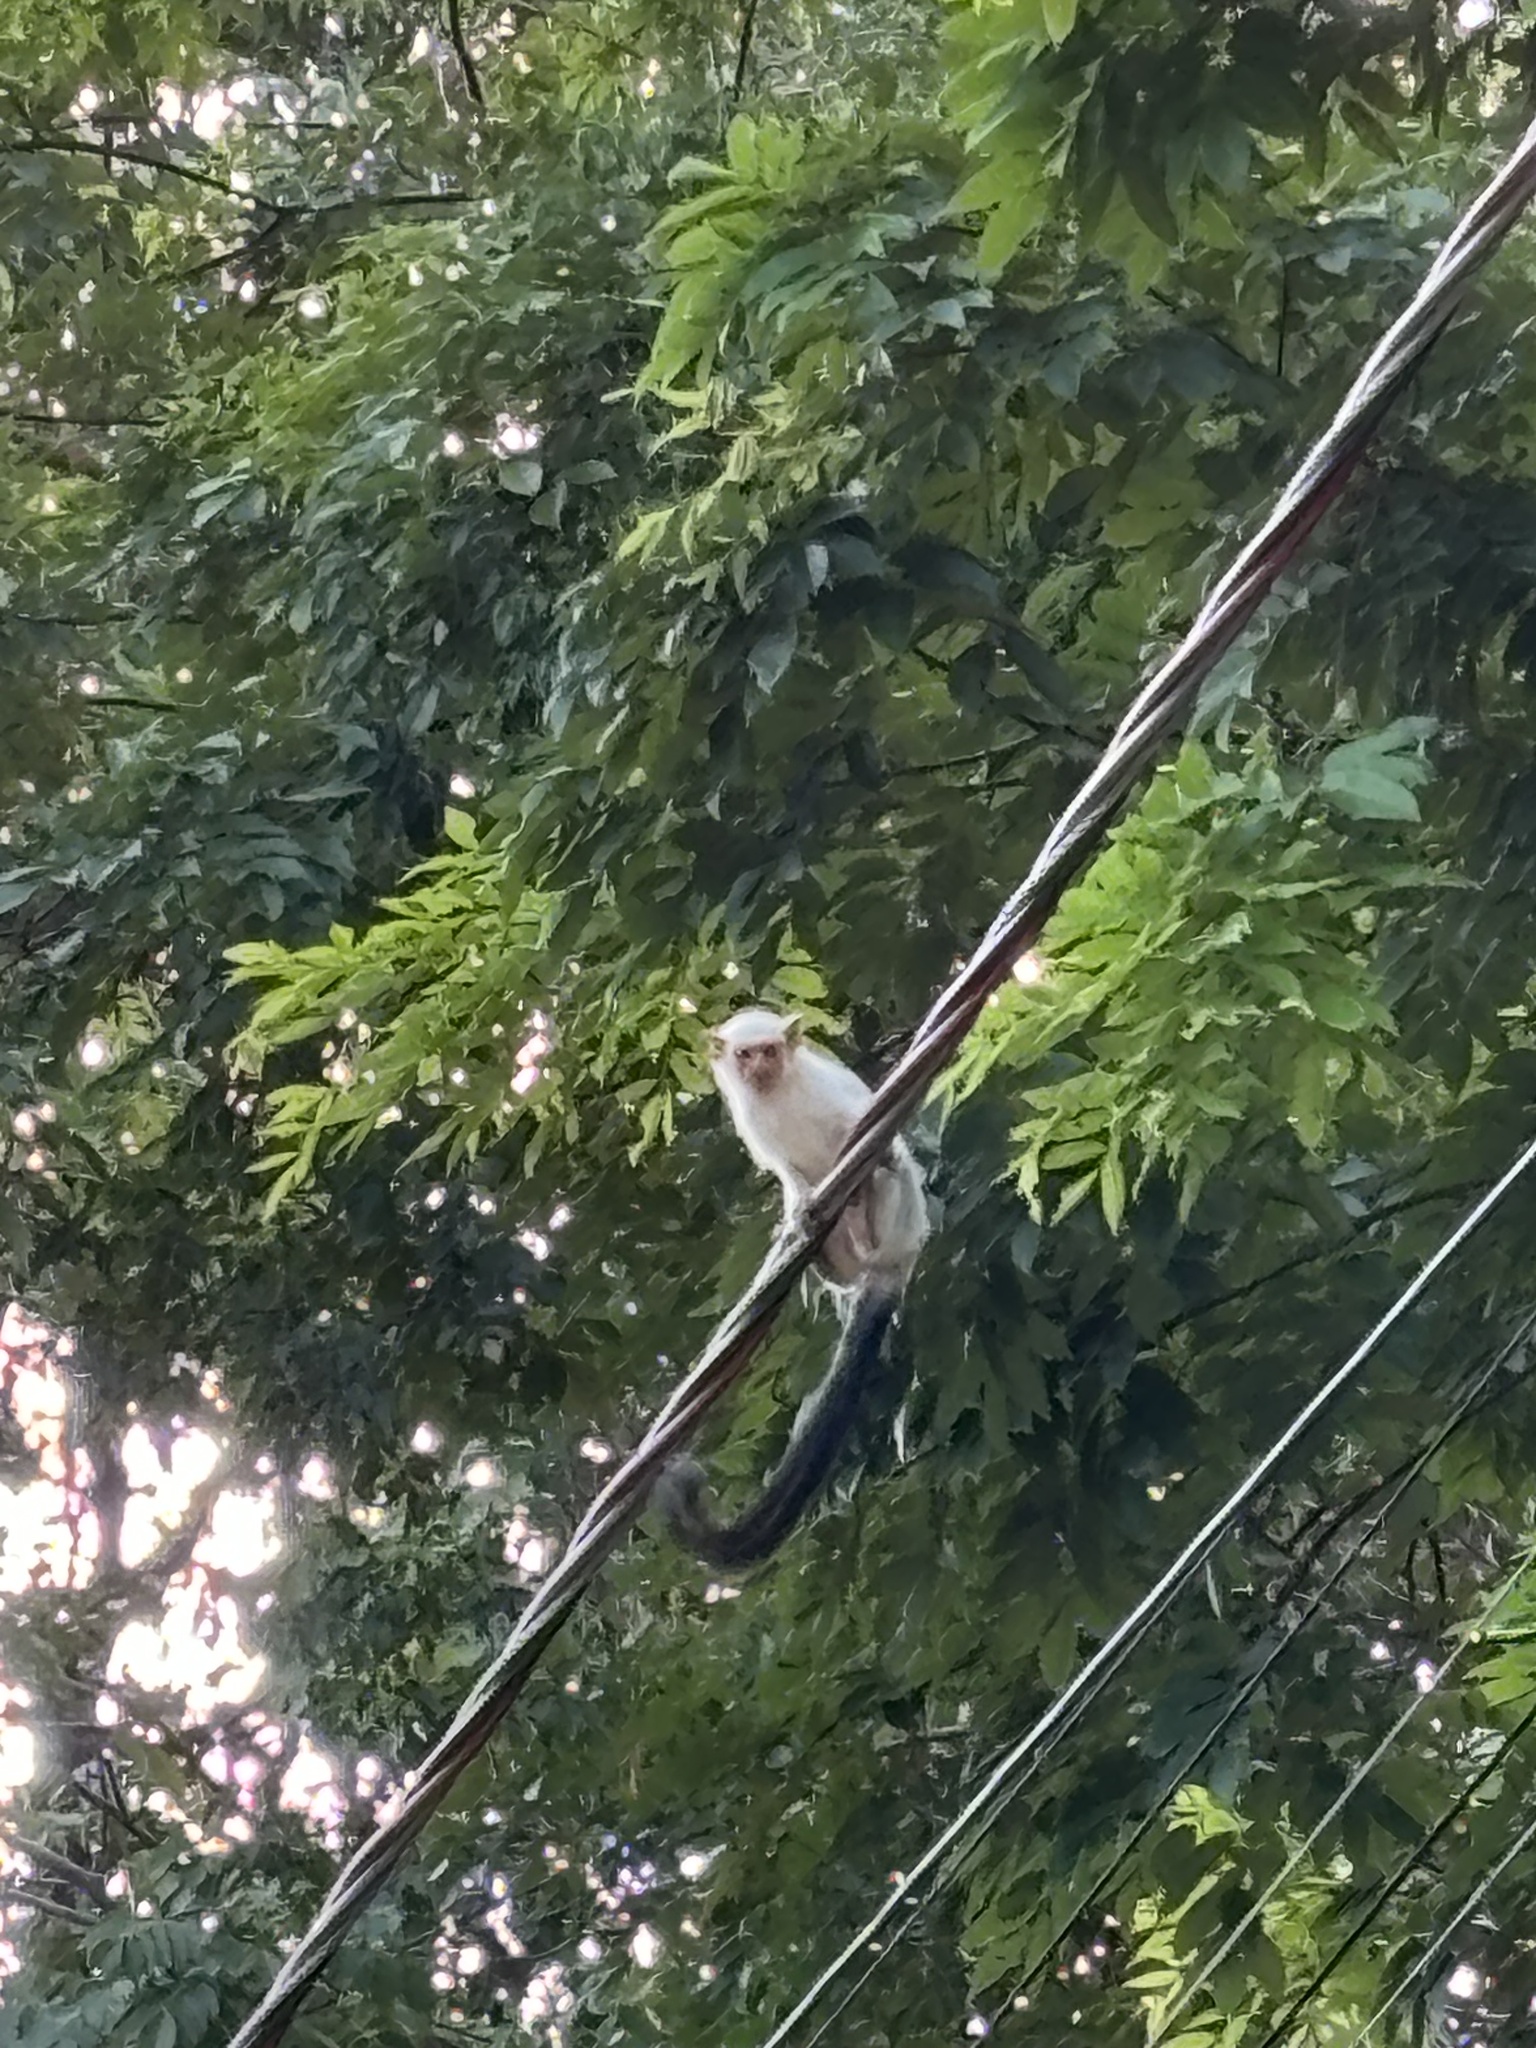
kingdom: Animalia
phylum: Chordata
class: Mammalia
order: Primates
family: Callitrichidae
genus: Mico
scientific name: Mico argentatus
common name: Silvery marmoset
